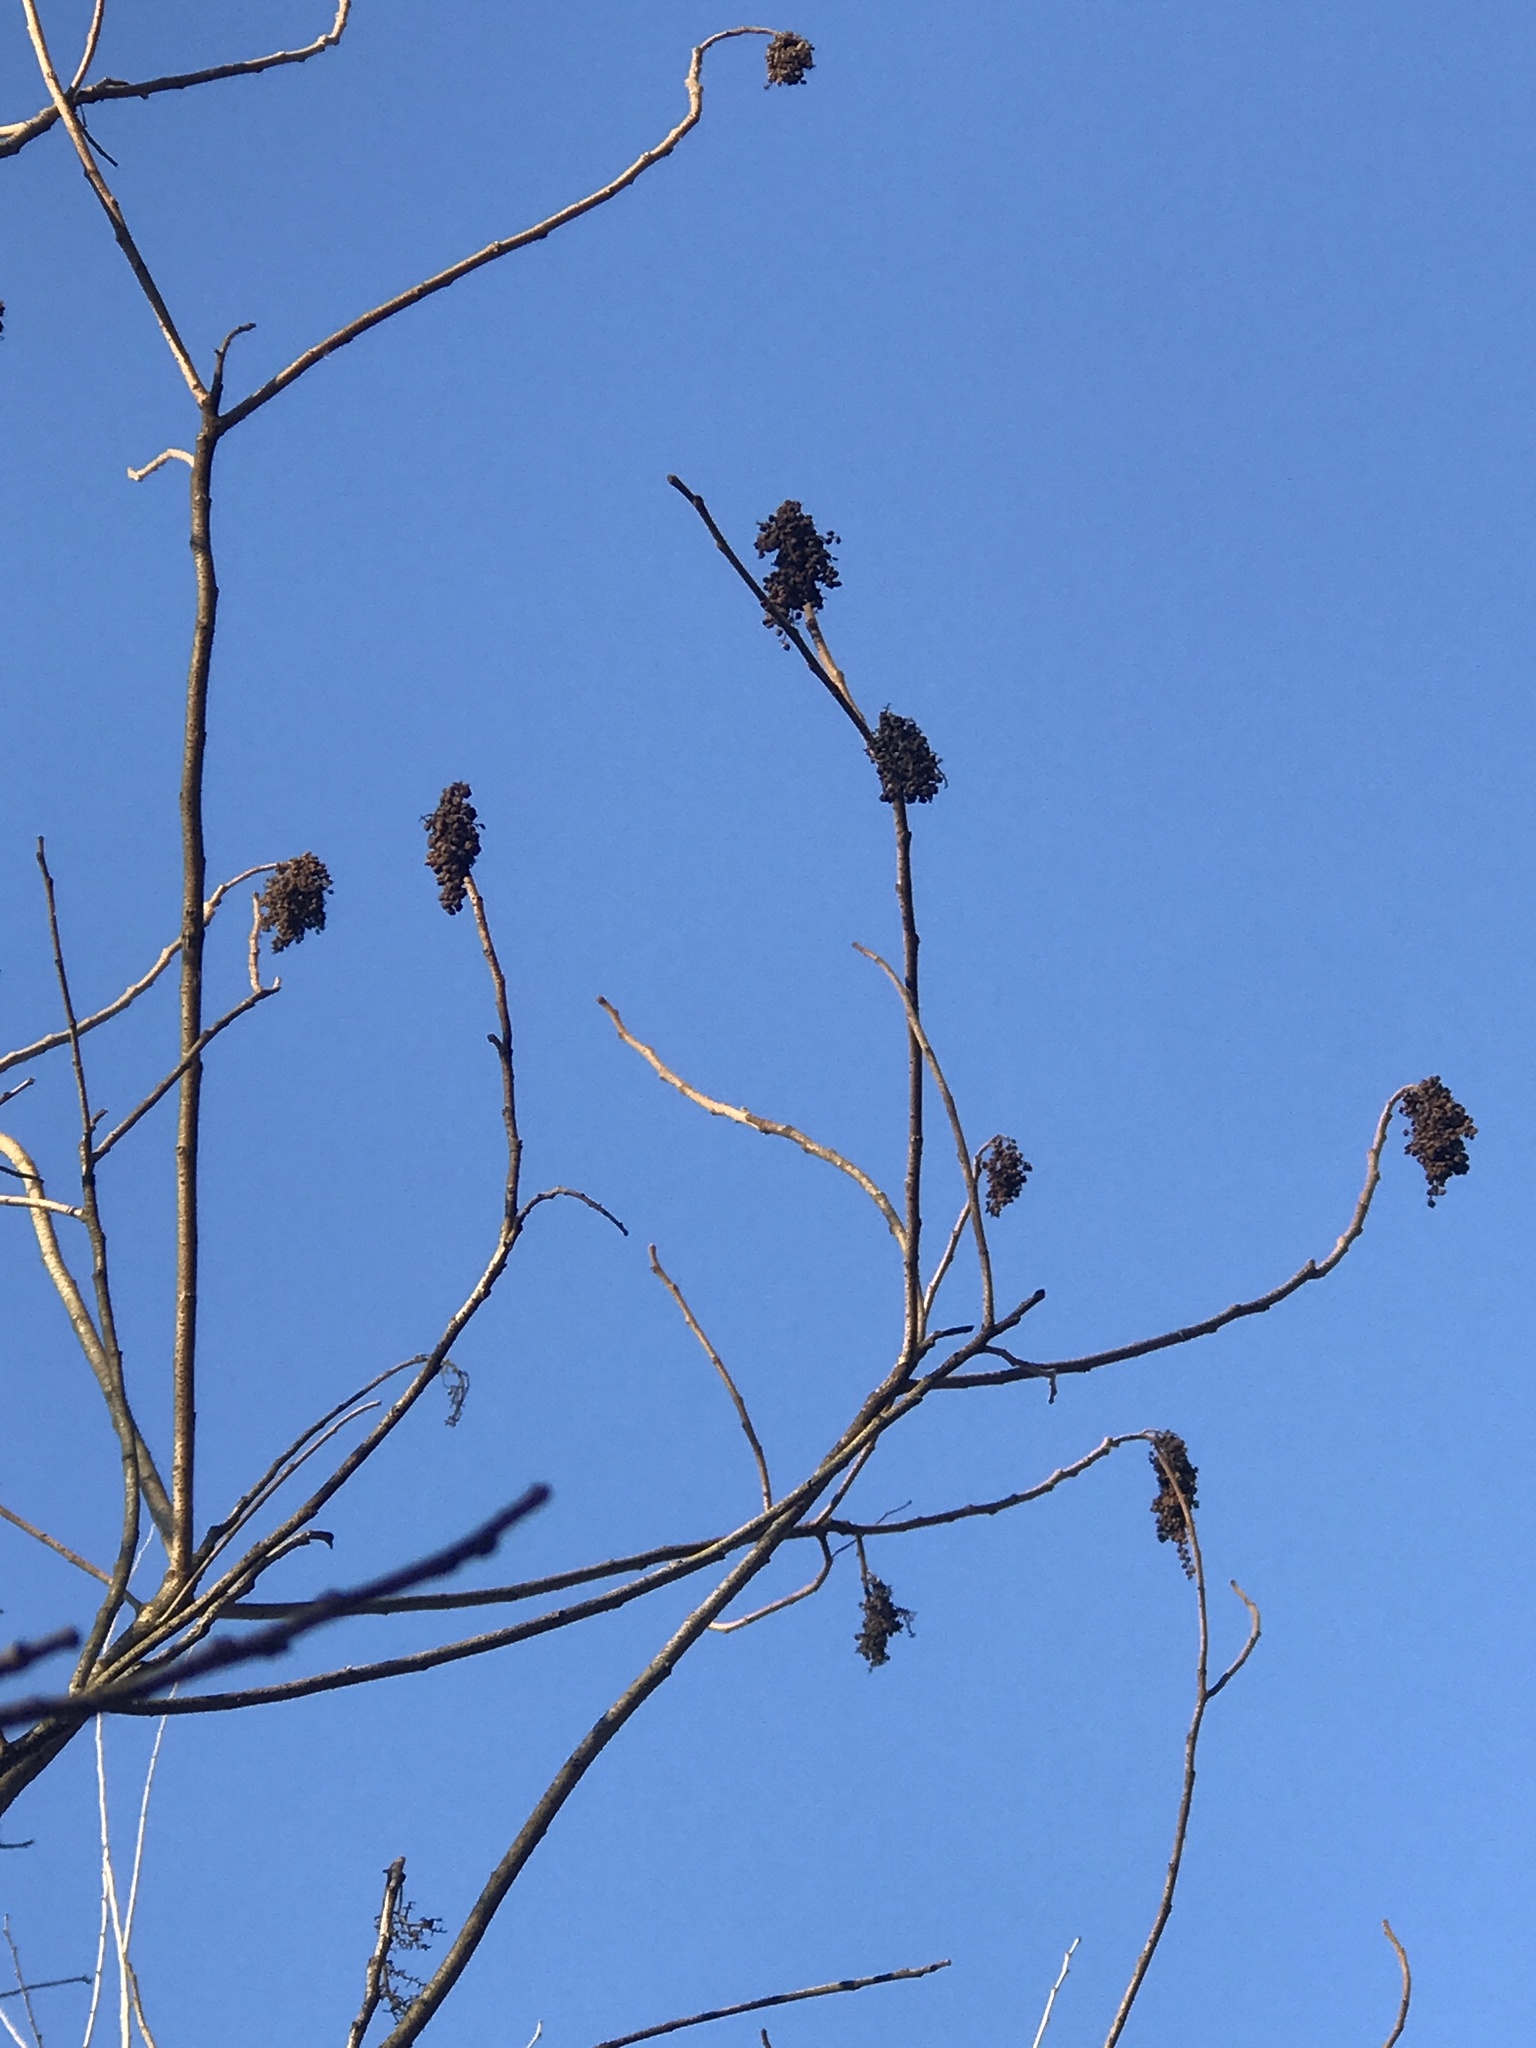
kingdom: Plantae
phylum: Tracheophyta
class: Magnoliopsida
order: Sapindales
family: Anacardiaceae
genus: Rhus
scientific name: Rhus copallina
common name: Shining sumac
